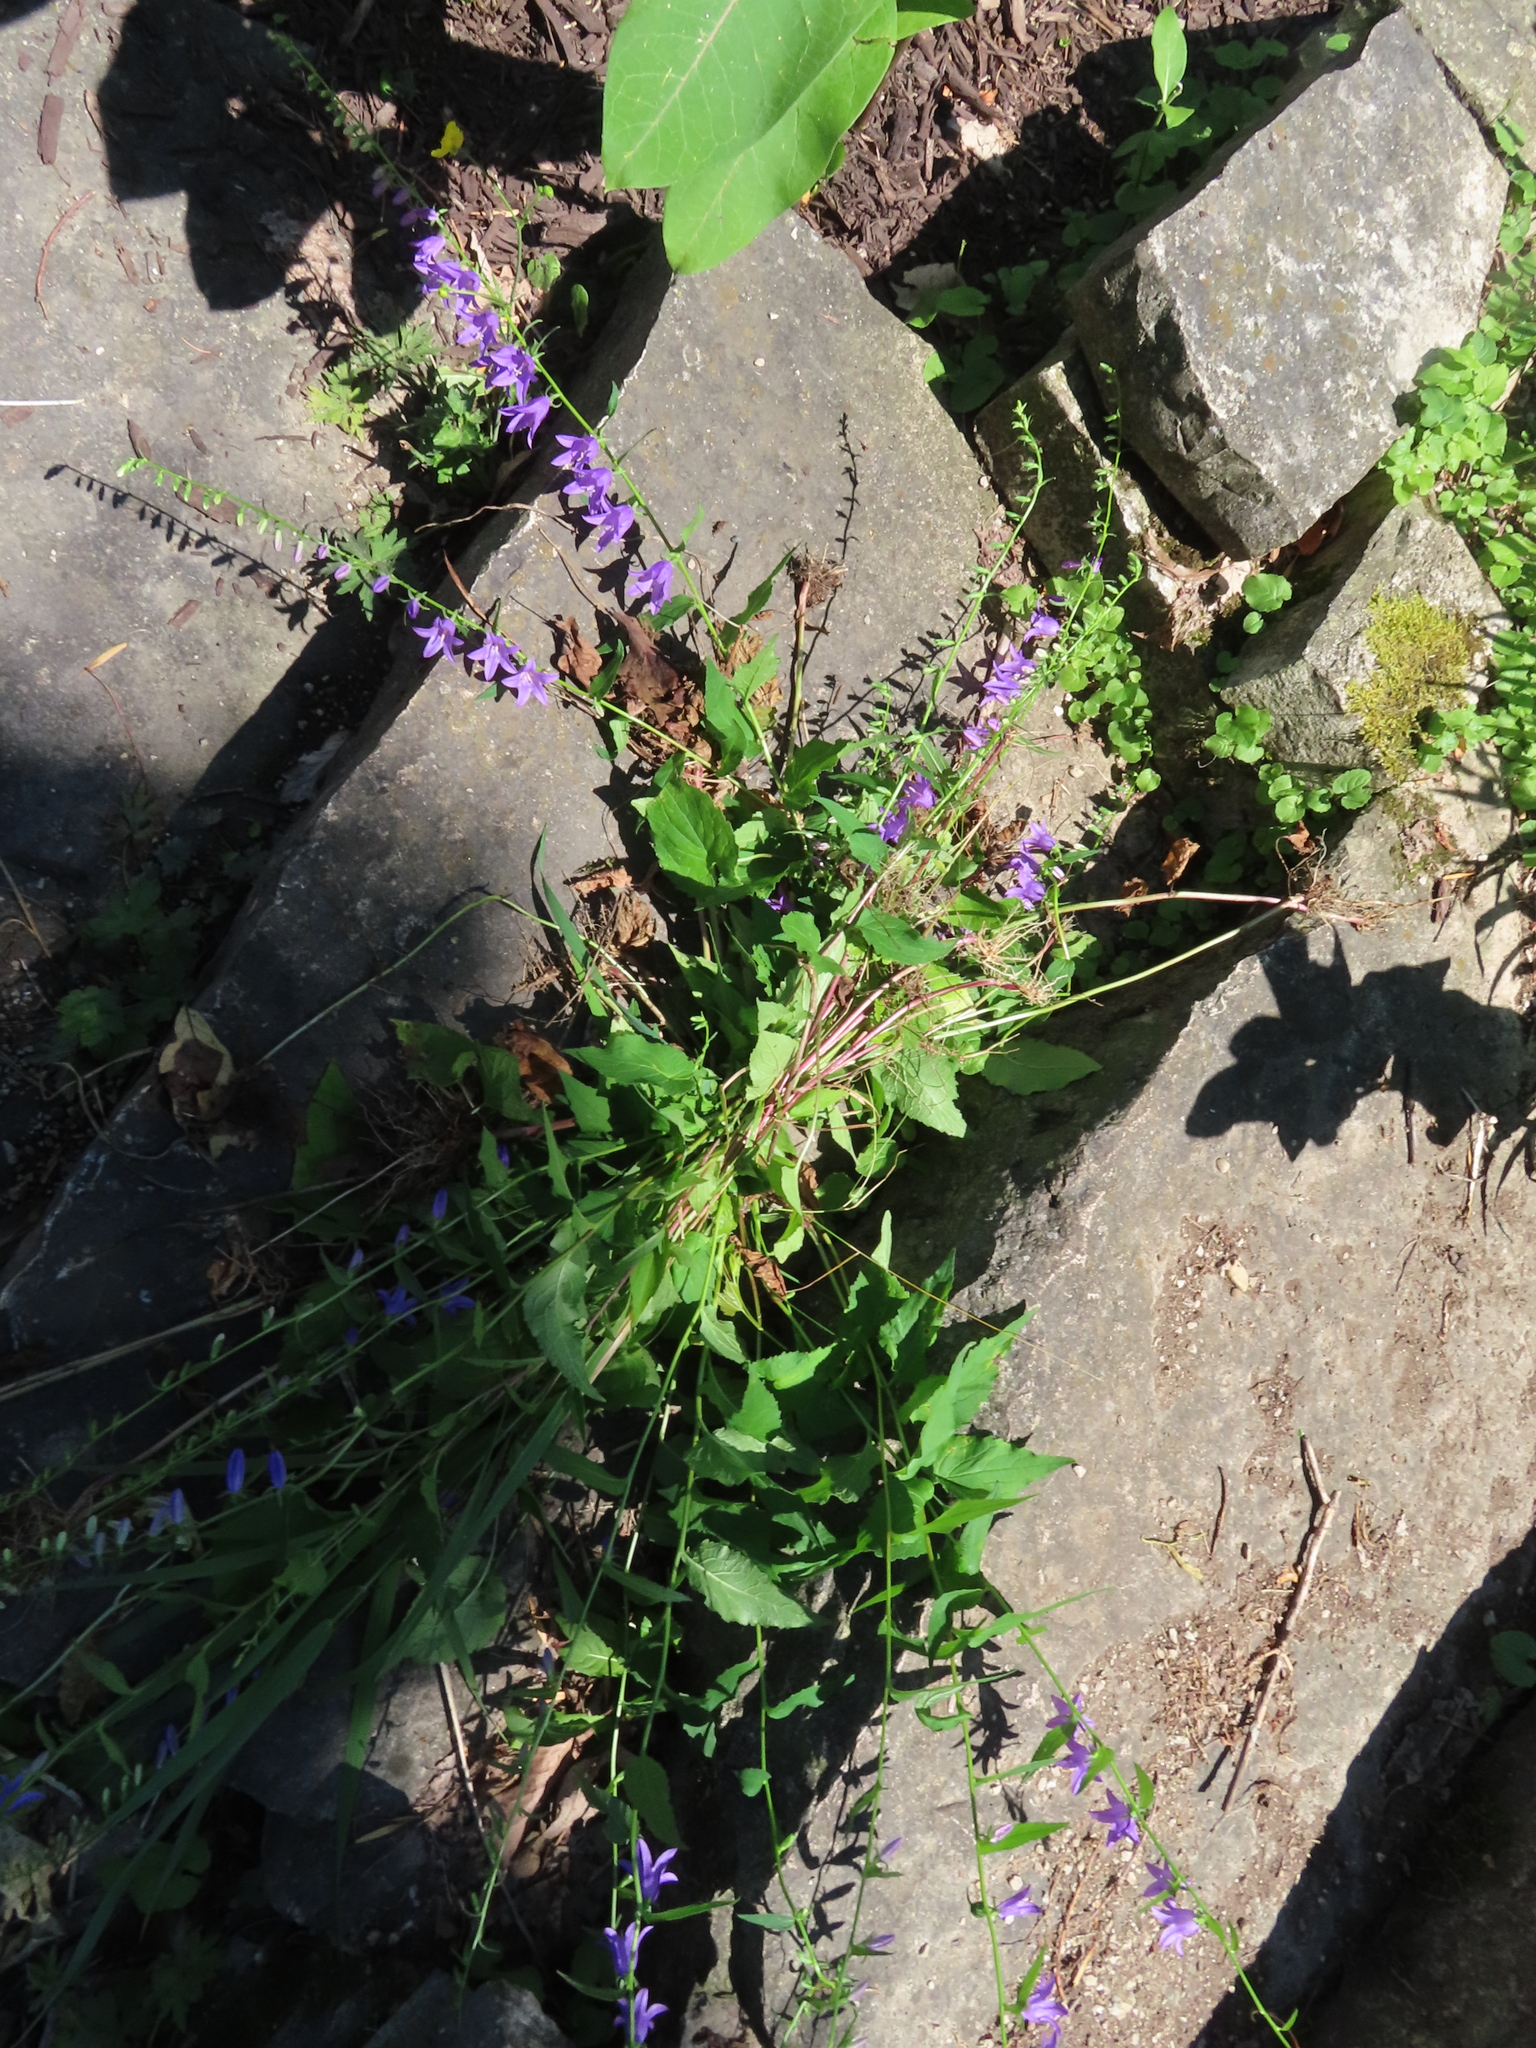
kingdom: Plantae
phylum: Tracheophyta
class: Magnoliopsida
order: Asterales
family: Campanulaceae
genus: Campanula
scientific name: Campanula rapunculoides
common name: Creeping bellflower
